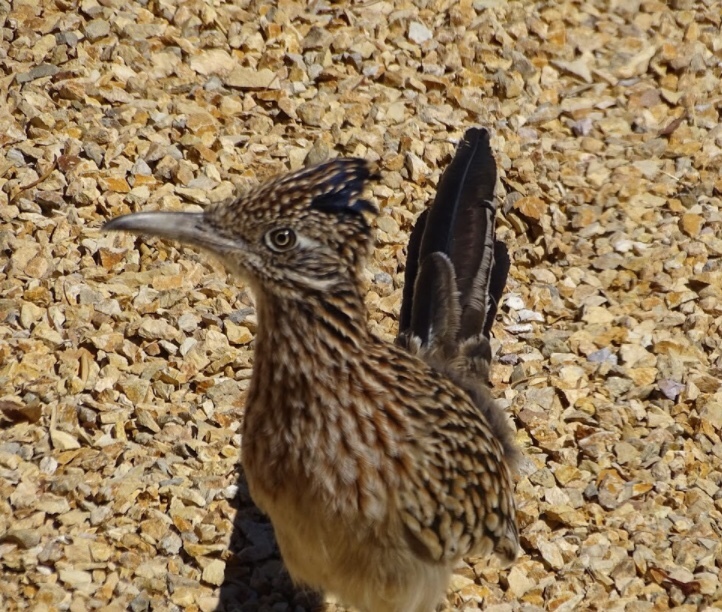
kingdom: Animalia
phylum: Chordata
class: Aves
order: Cuculiformes
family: Cuculidae
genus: Geococcyx
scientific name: Geococcyx californianus
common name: Greater roadrunner
